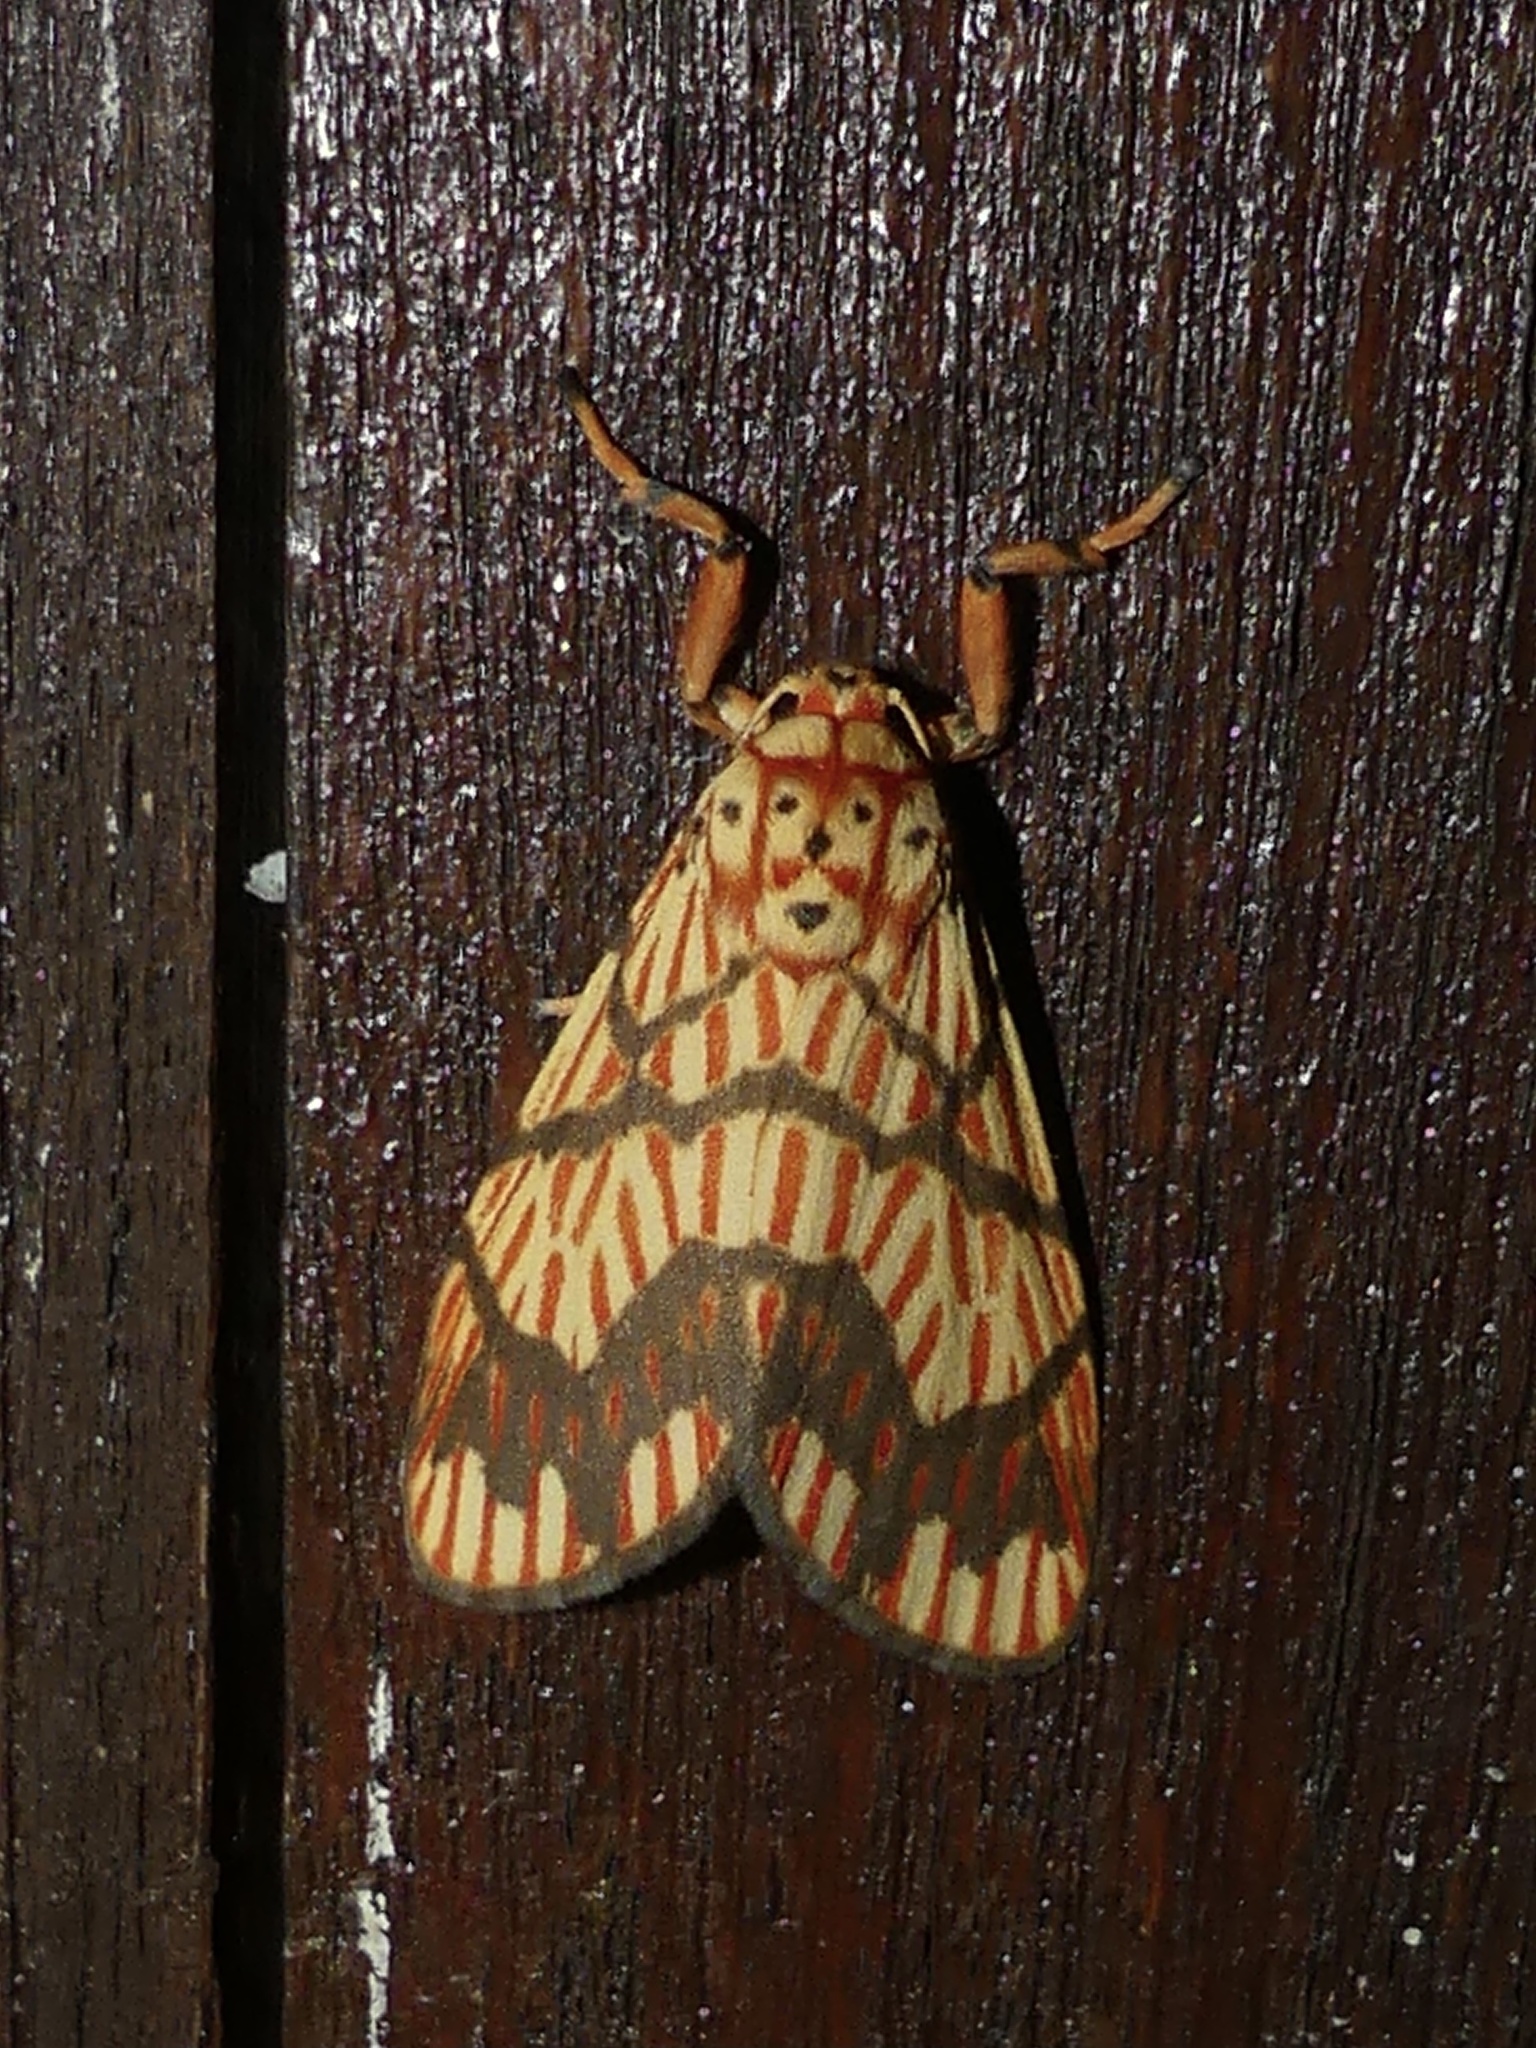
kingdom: Animalia
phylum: Arthropoda
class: Insecta
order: Lepidoptera
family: Erebidae
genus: Barsine
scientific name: Barsine euprepia
